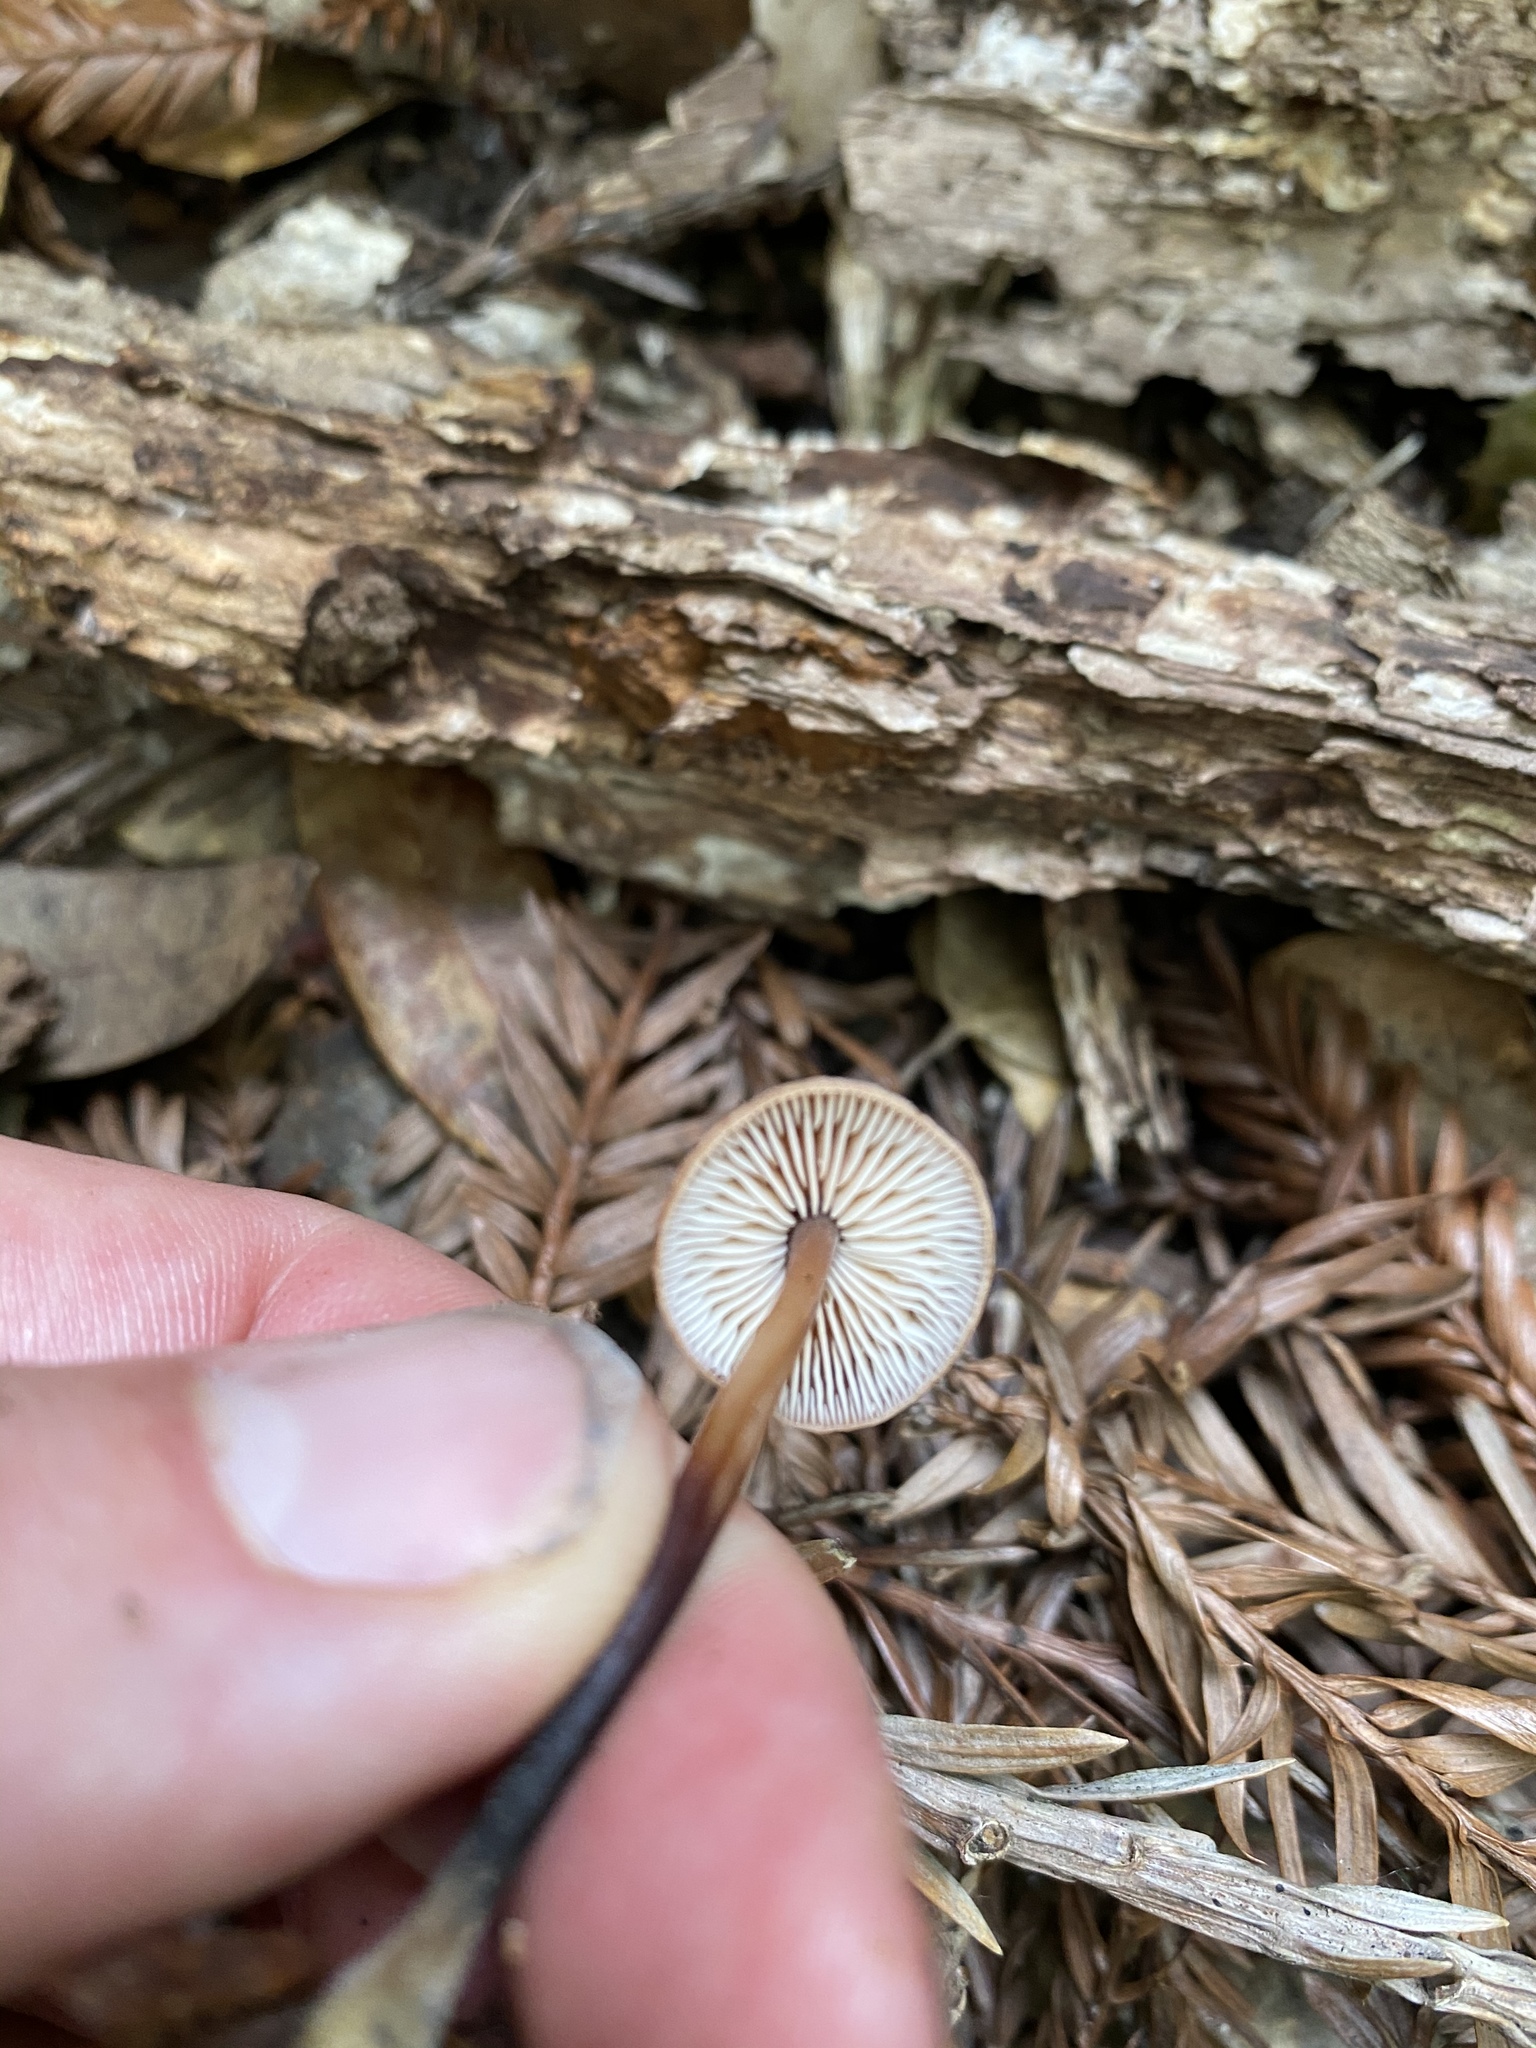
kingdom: Fungi
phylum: Basidiomycota
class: Agaricomycetes
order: Agaricales
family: Omphalotaceae
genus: Gymnopus
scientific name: Gymnopus brassicolens
